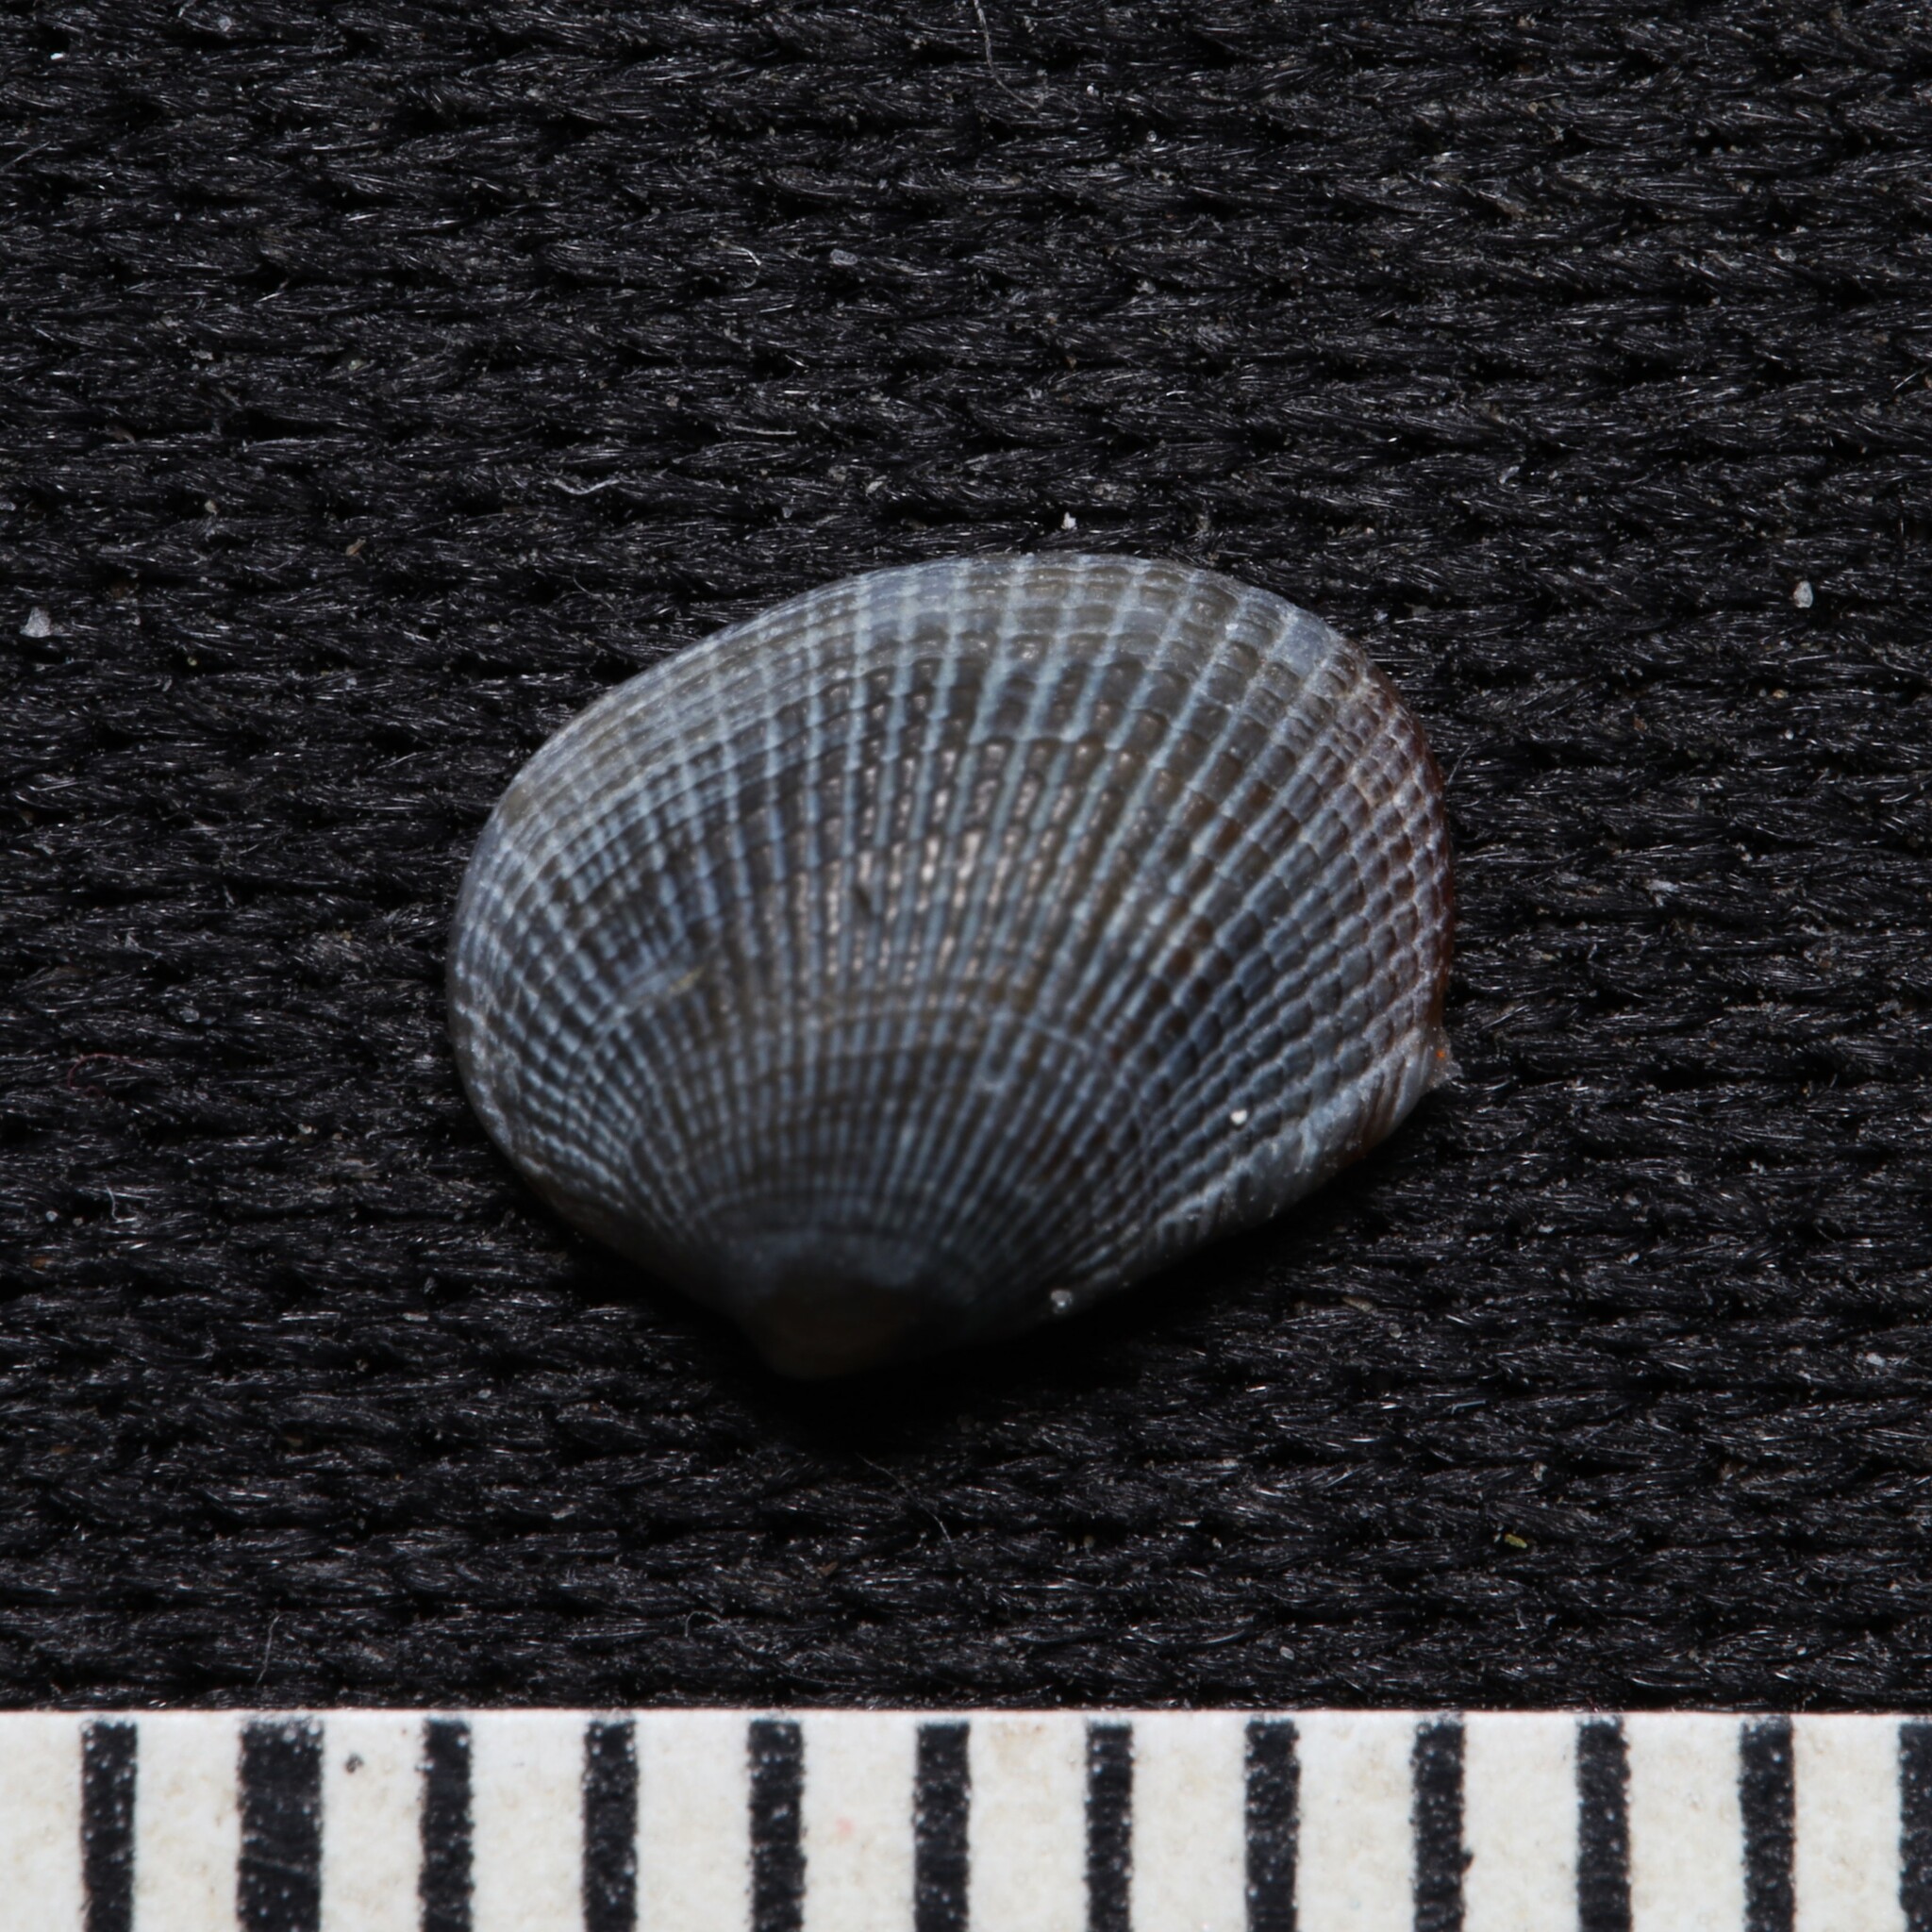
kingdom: Animalia
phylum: Mollusca
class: Bivalvia
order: Venerida
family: Veneridae
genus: Chioneryx
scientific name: Chioneryx grus
